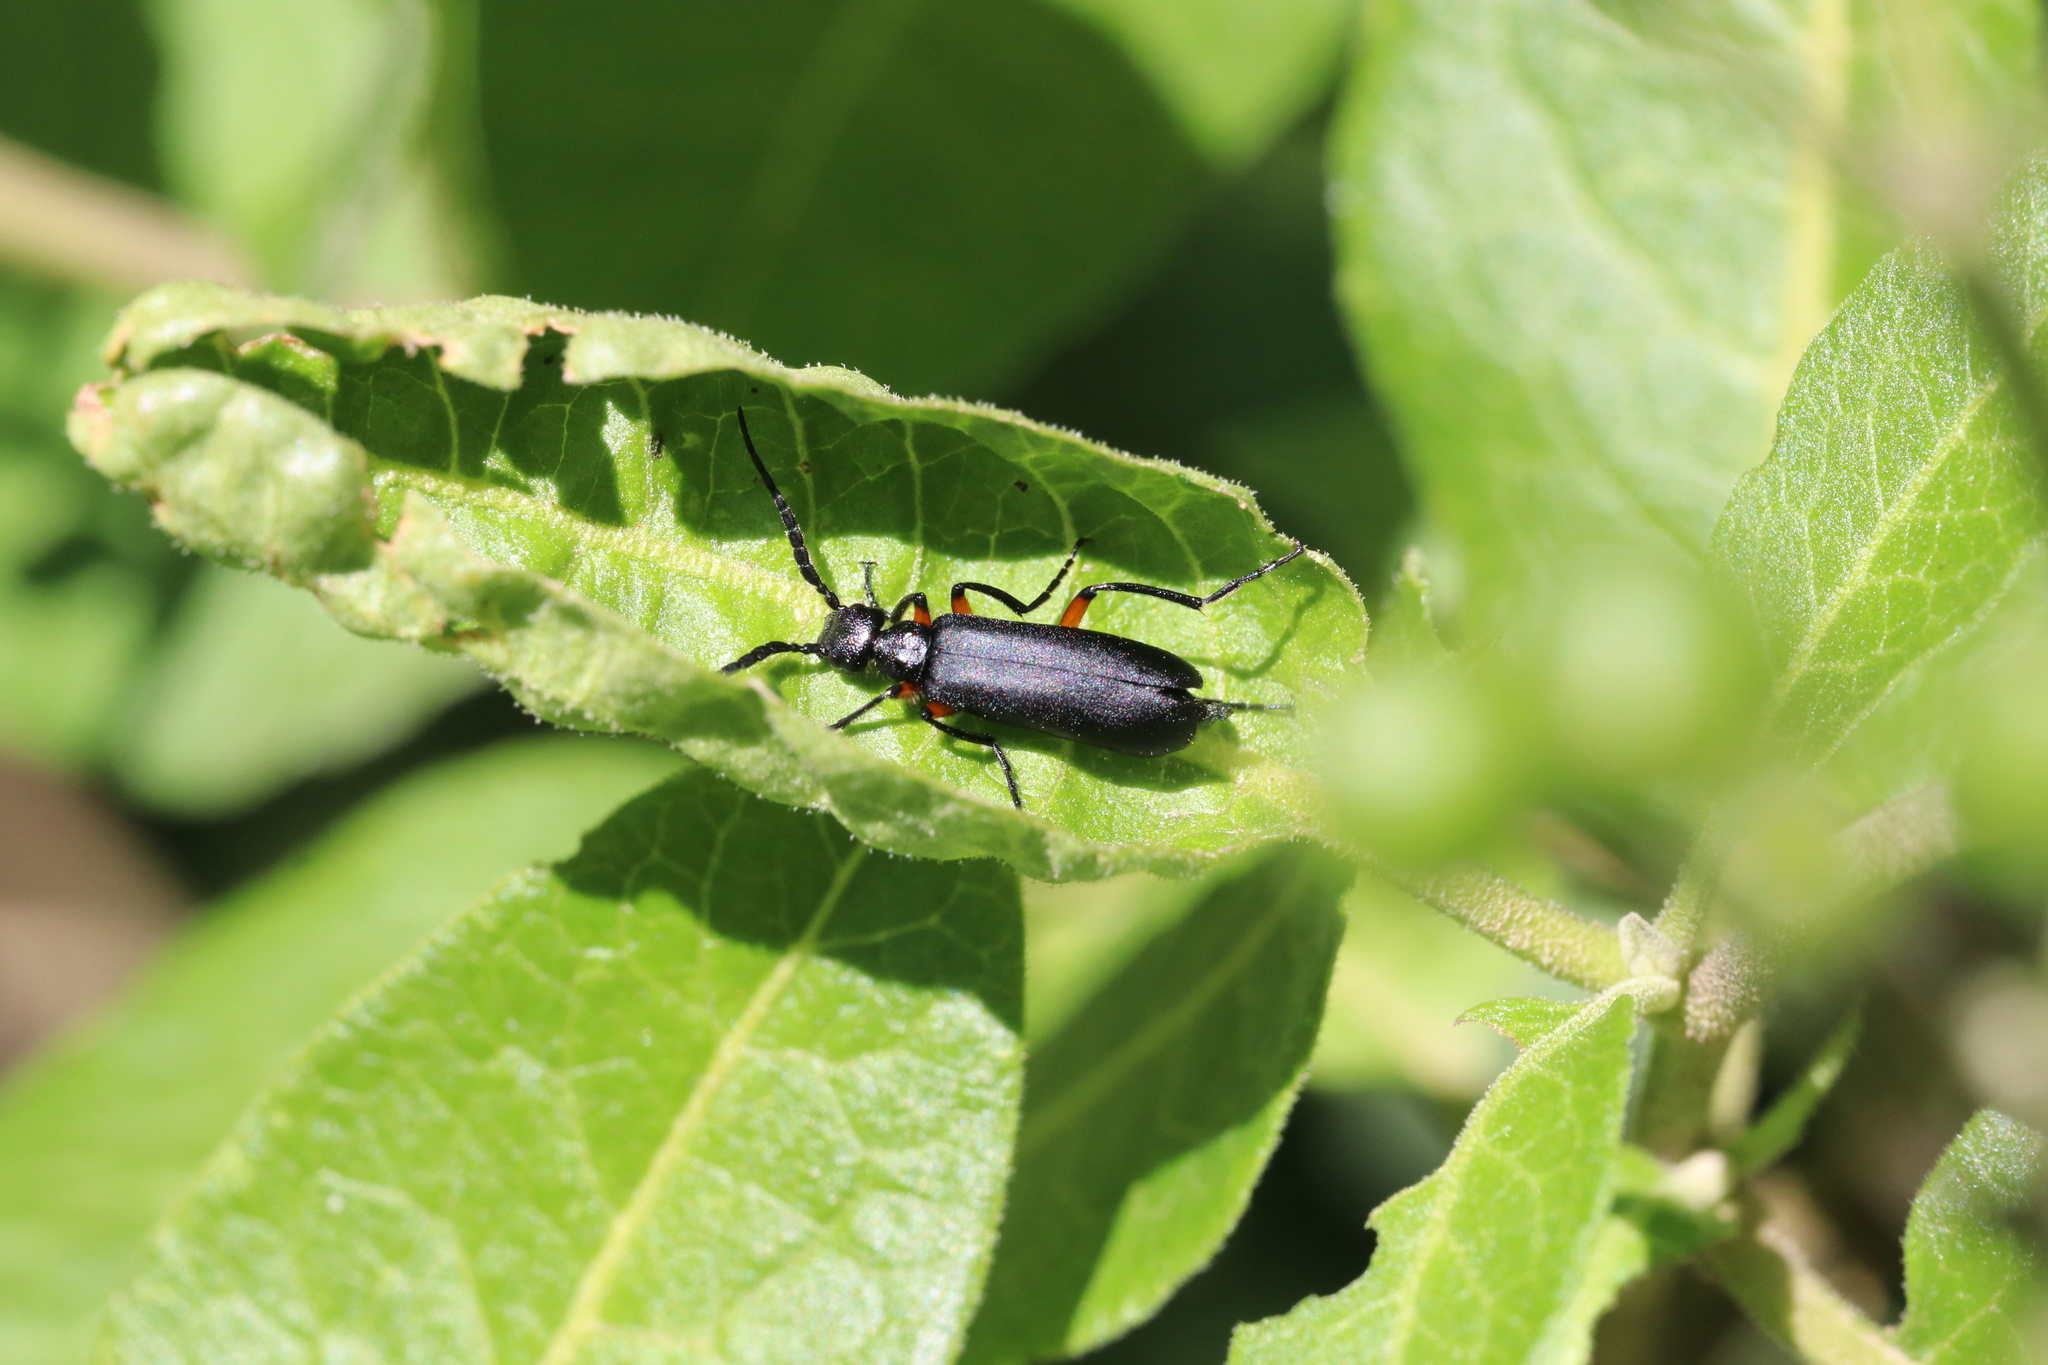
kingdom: Animalia
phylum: Arthropoda
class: Insecta
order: Coleoptera
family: Meloidae
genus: Epicauta
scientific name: Epicauta
